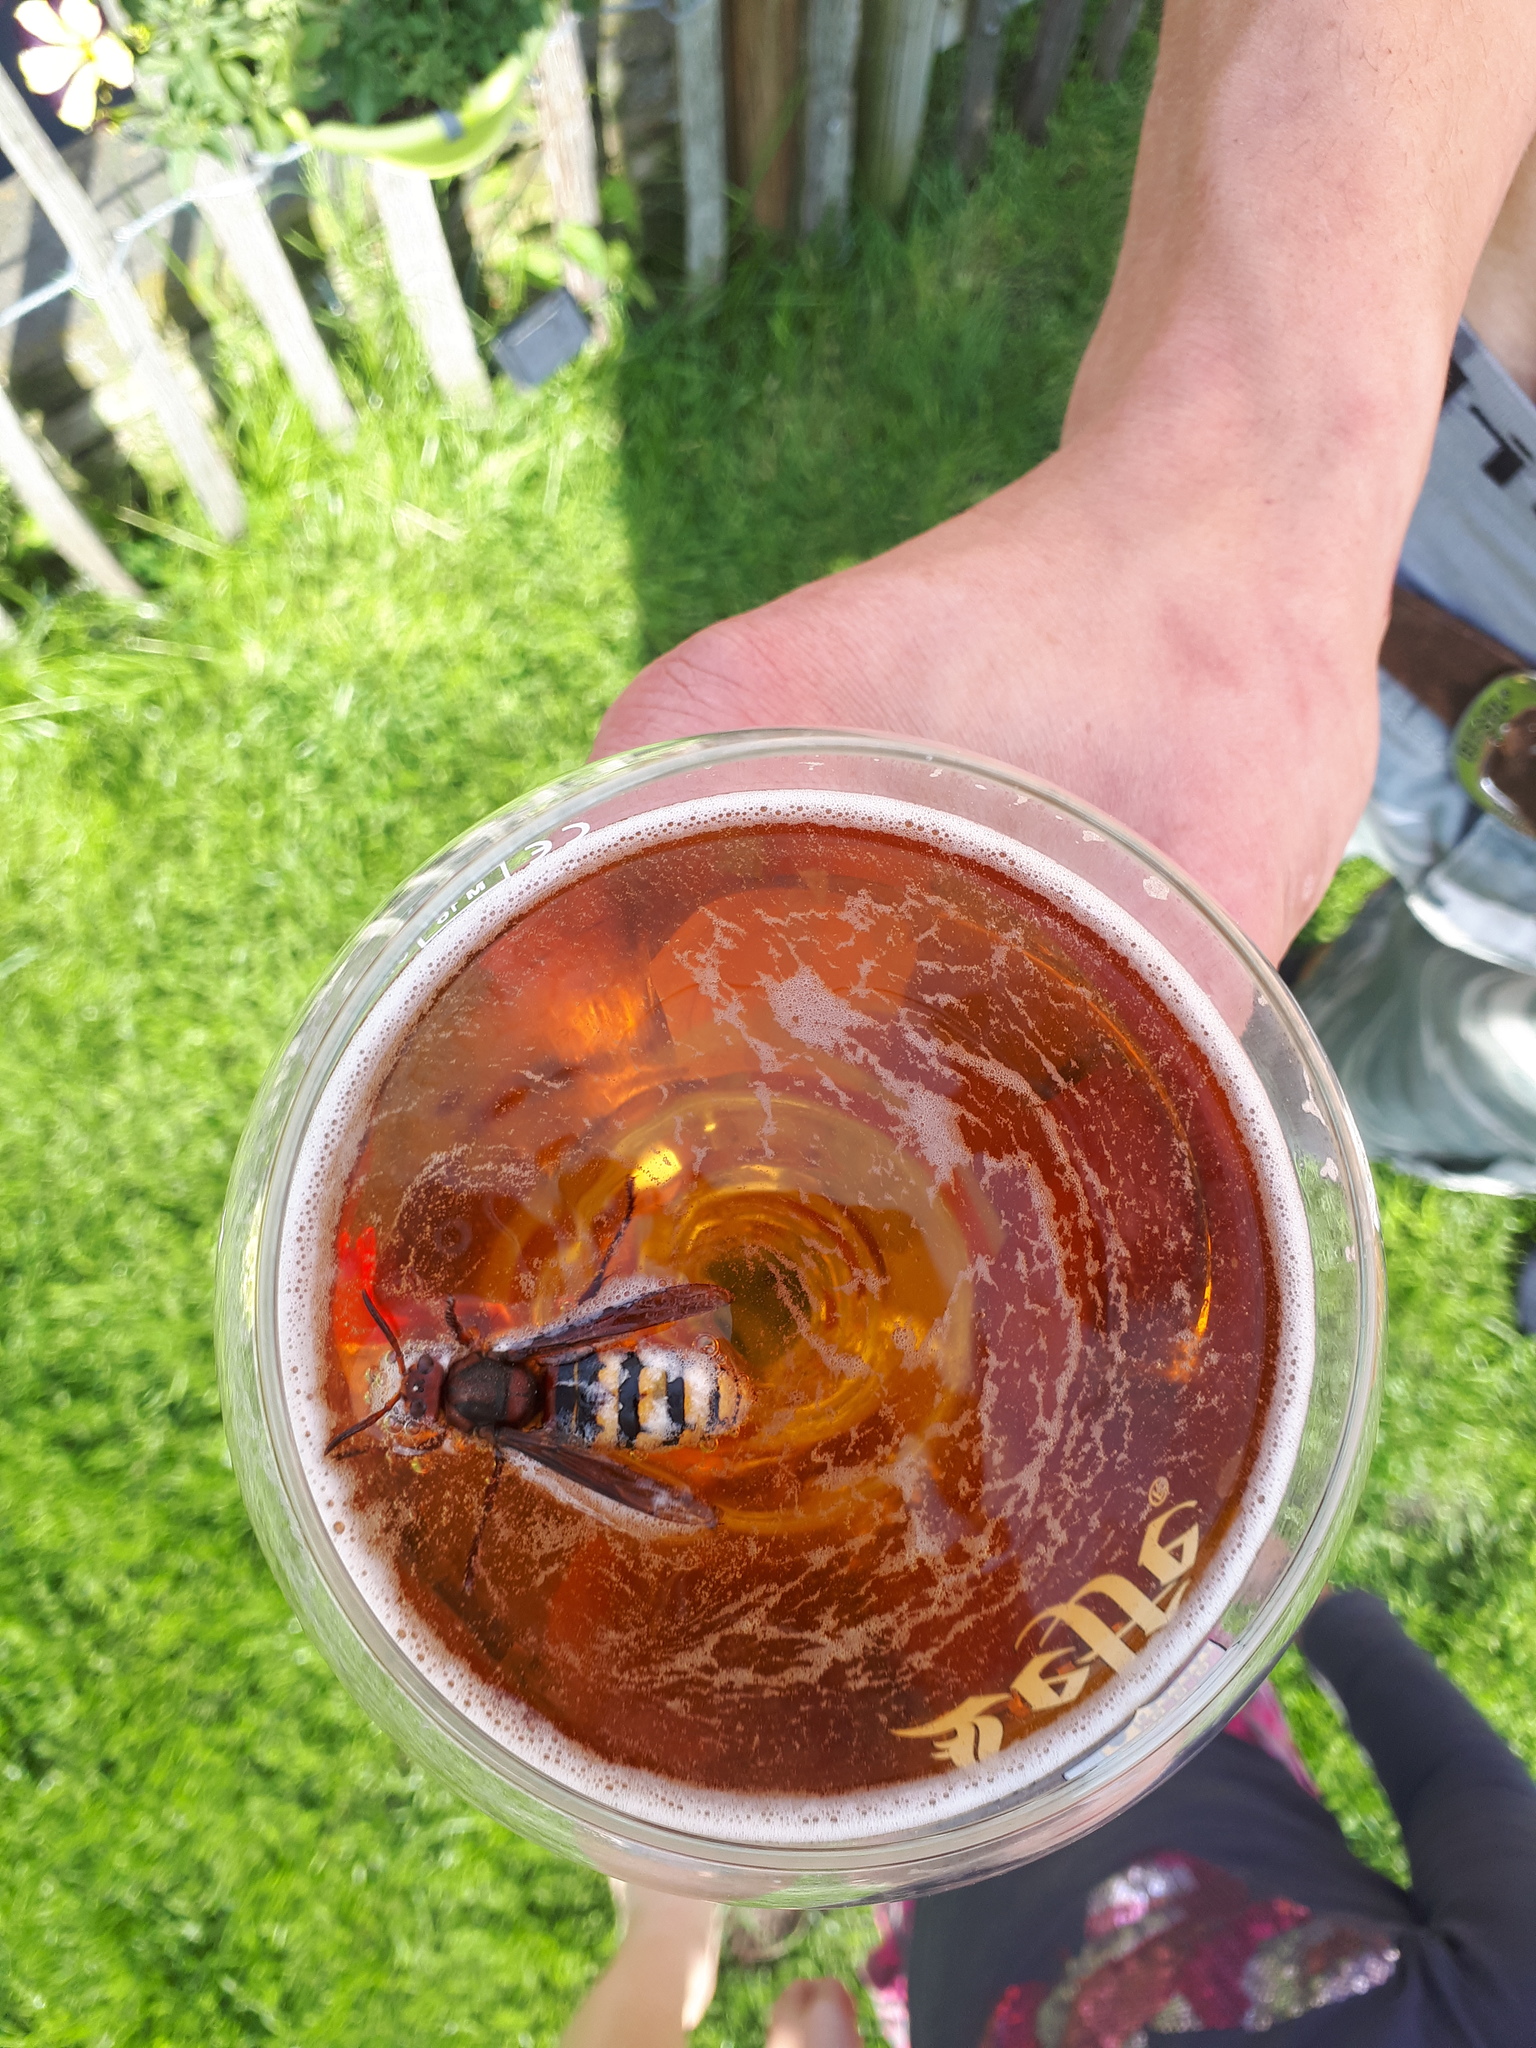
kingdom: Animalia
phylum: Arthropoda
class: Insecta
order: Hymenoptera
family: Vespidae
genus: Vespa
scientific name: Vespa crabro
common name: Hornet
